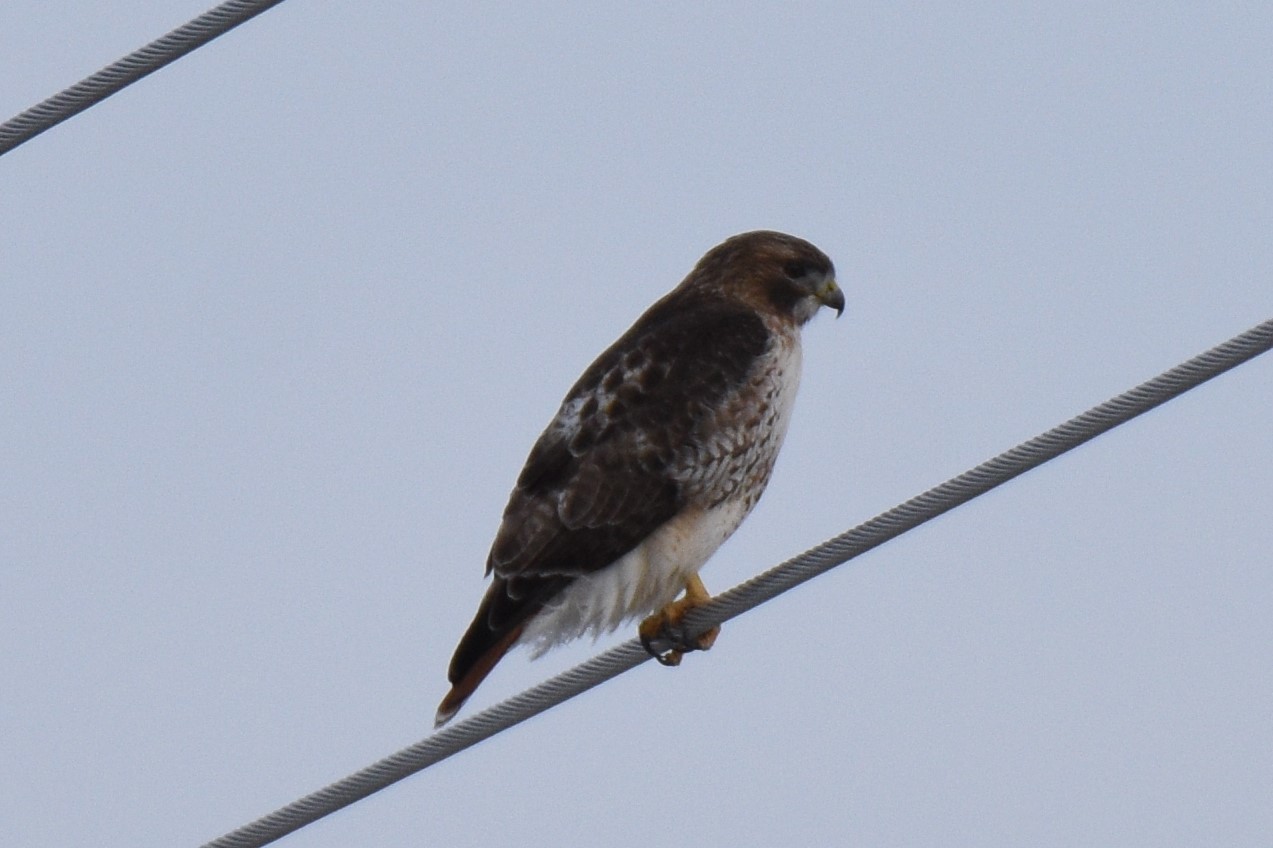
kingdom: Animalia
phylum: Chordata
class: Aves
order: Accipitriformes
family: Accipitridae
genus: Buteo
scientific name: Buteo jamaicensis
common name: Red-tailed hawk
